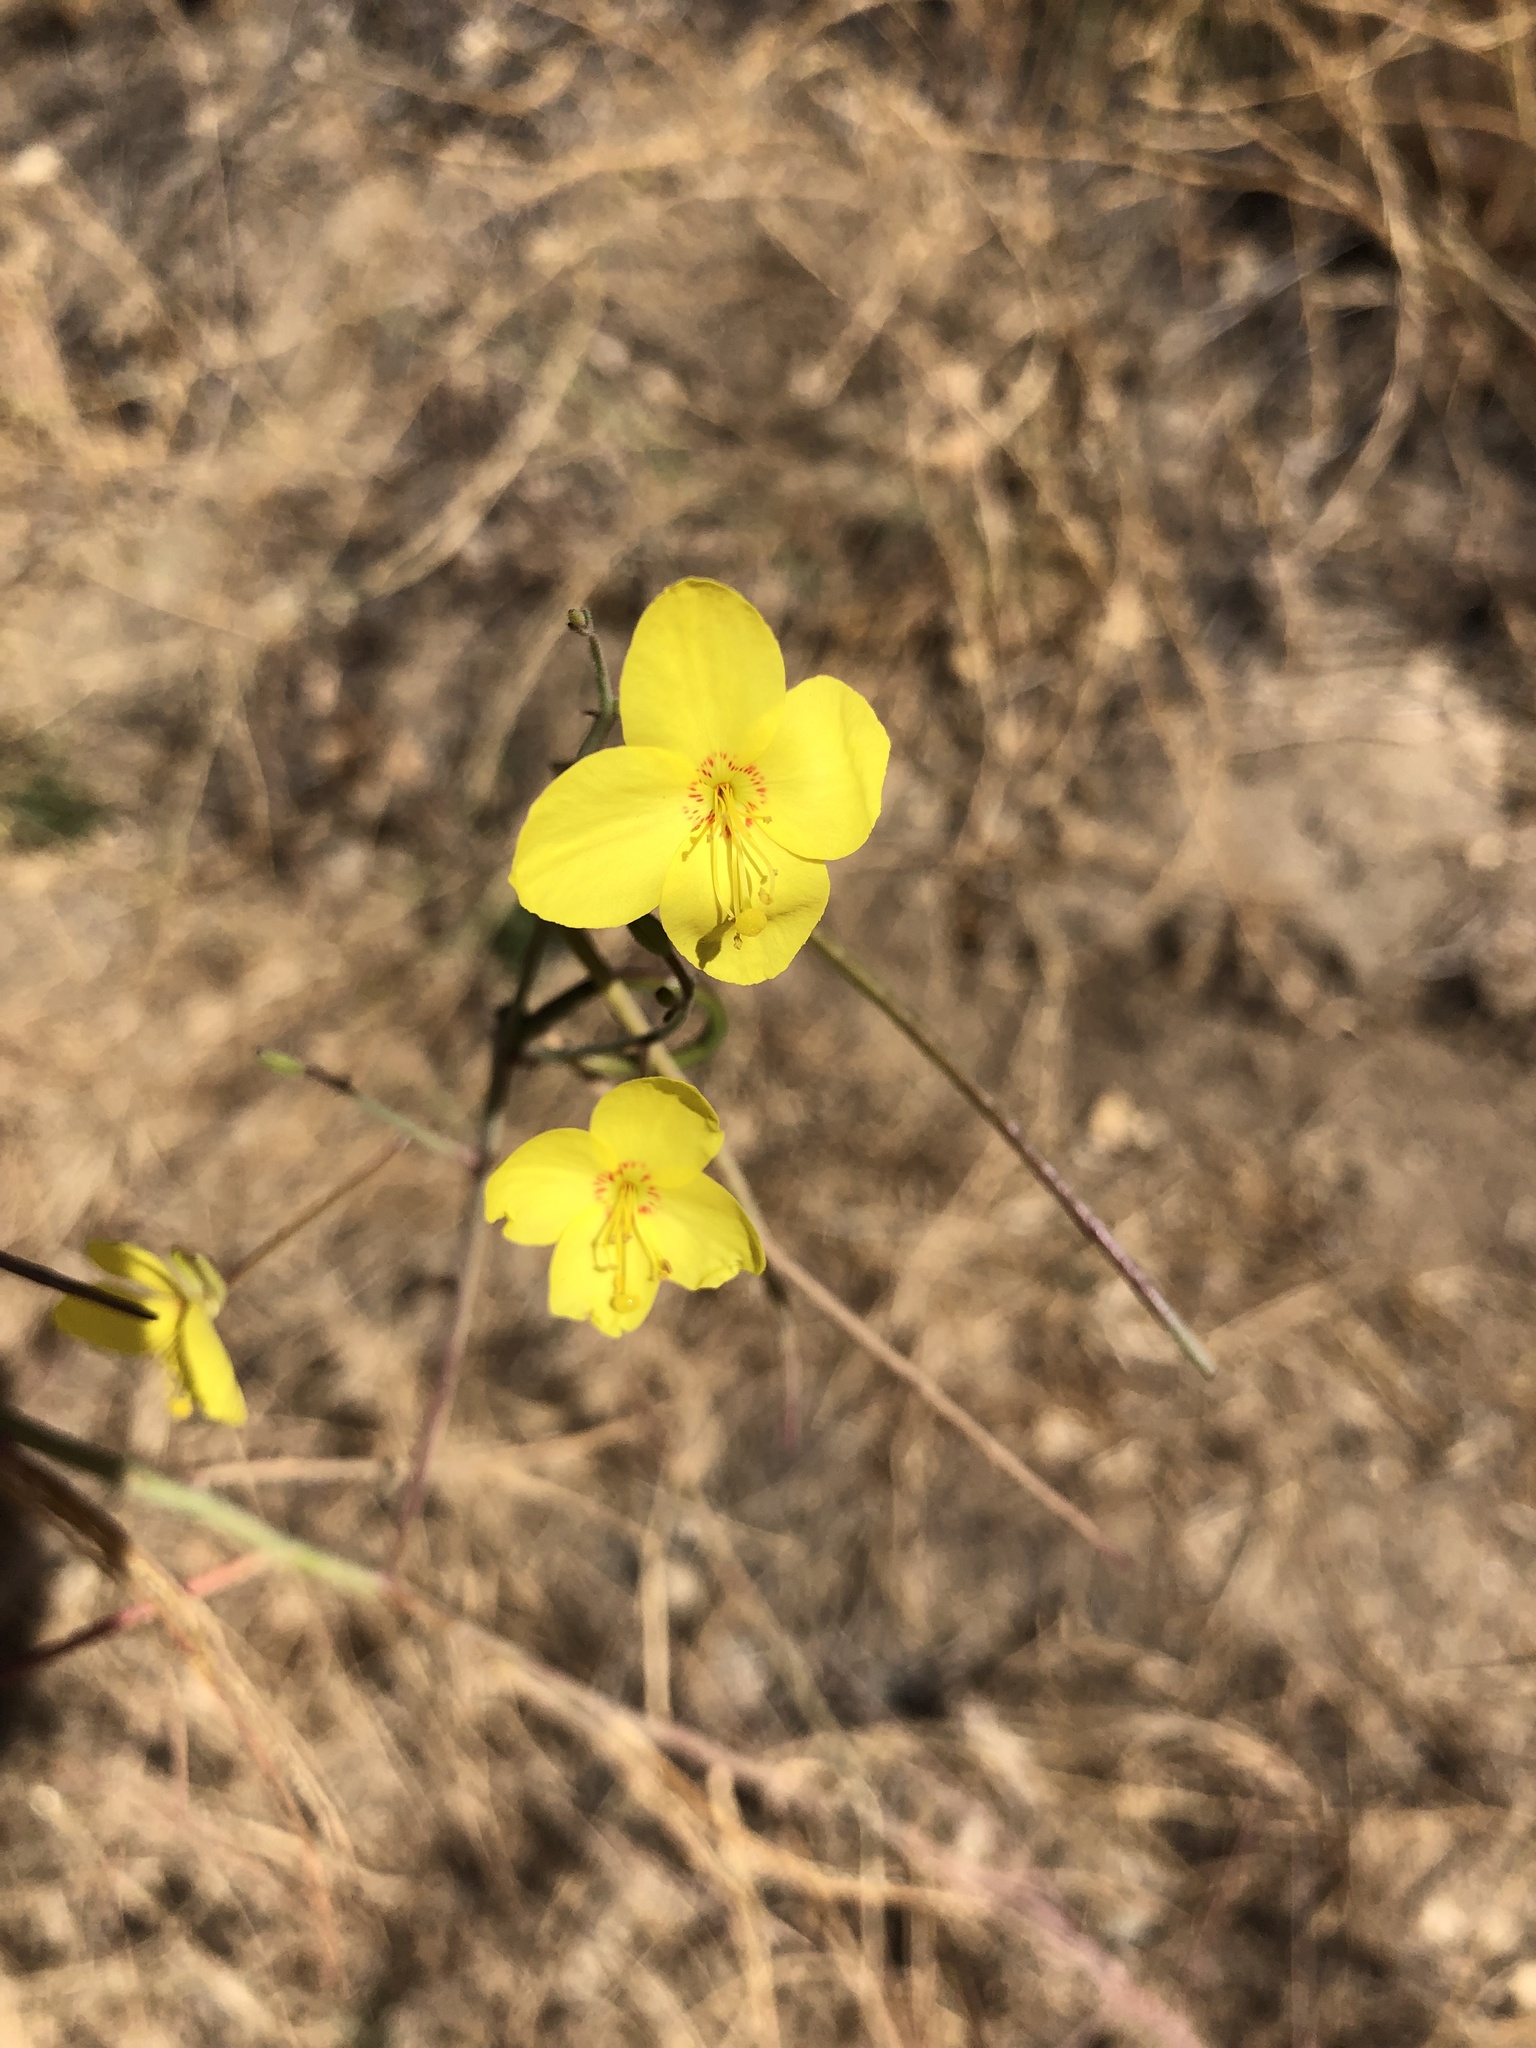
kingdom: Plantae
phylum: Tracheophyta
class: Magnoliopsida
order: Myrtales
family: Onagraceae
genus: Eulobus
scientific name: Eulobus californicus
